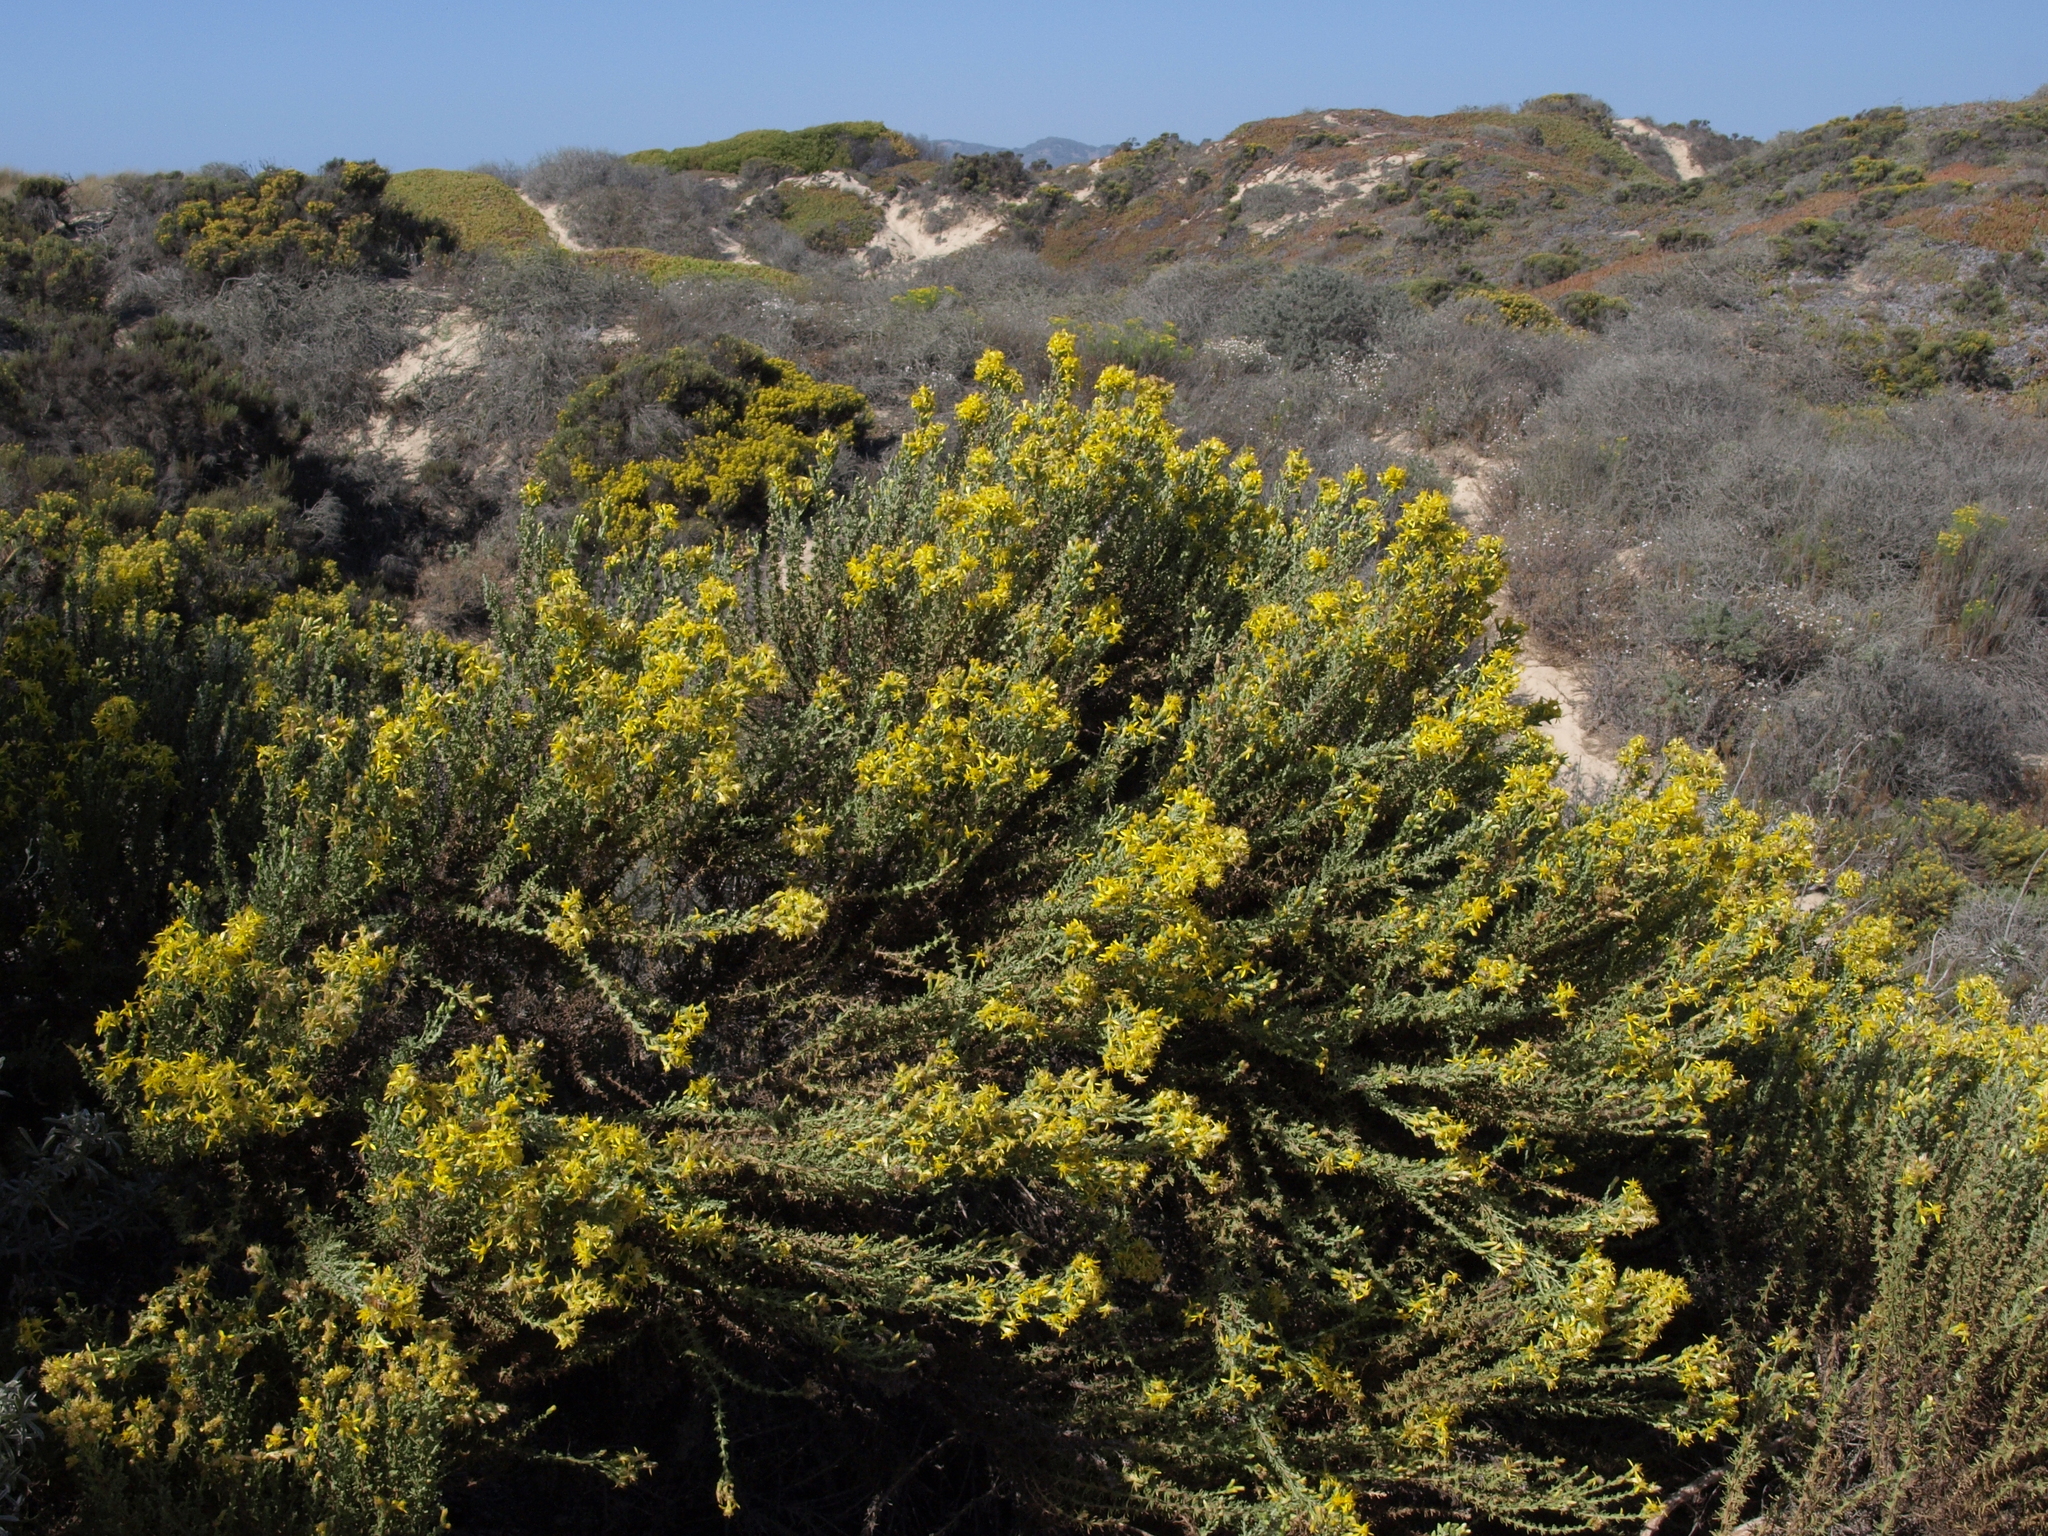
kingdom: Plantae
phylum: Tracheophyta
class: Magnoliopsida
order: Asterales
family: Asteraceae
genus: Ericameria
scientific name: Ericameria ericoides
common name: California goldenbush
